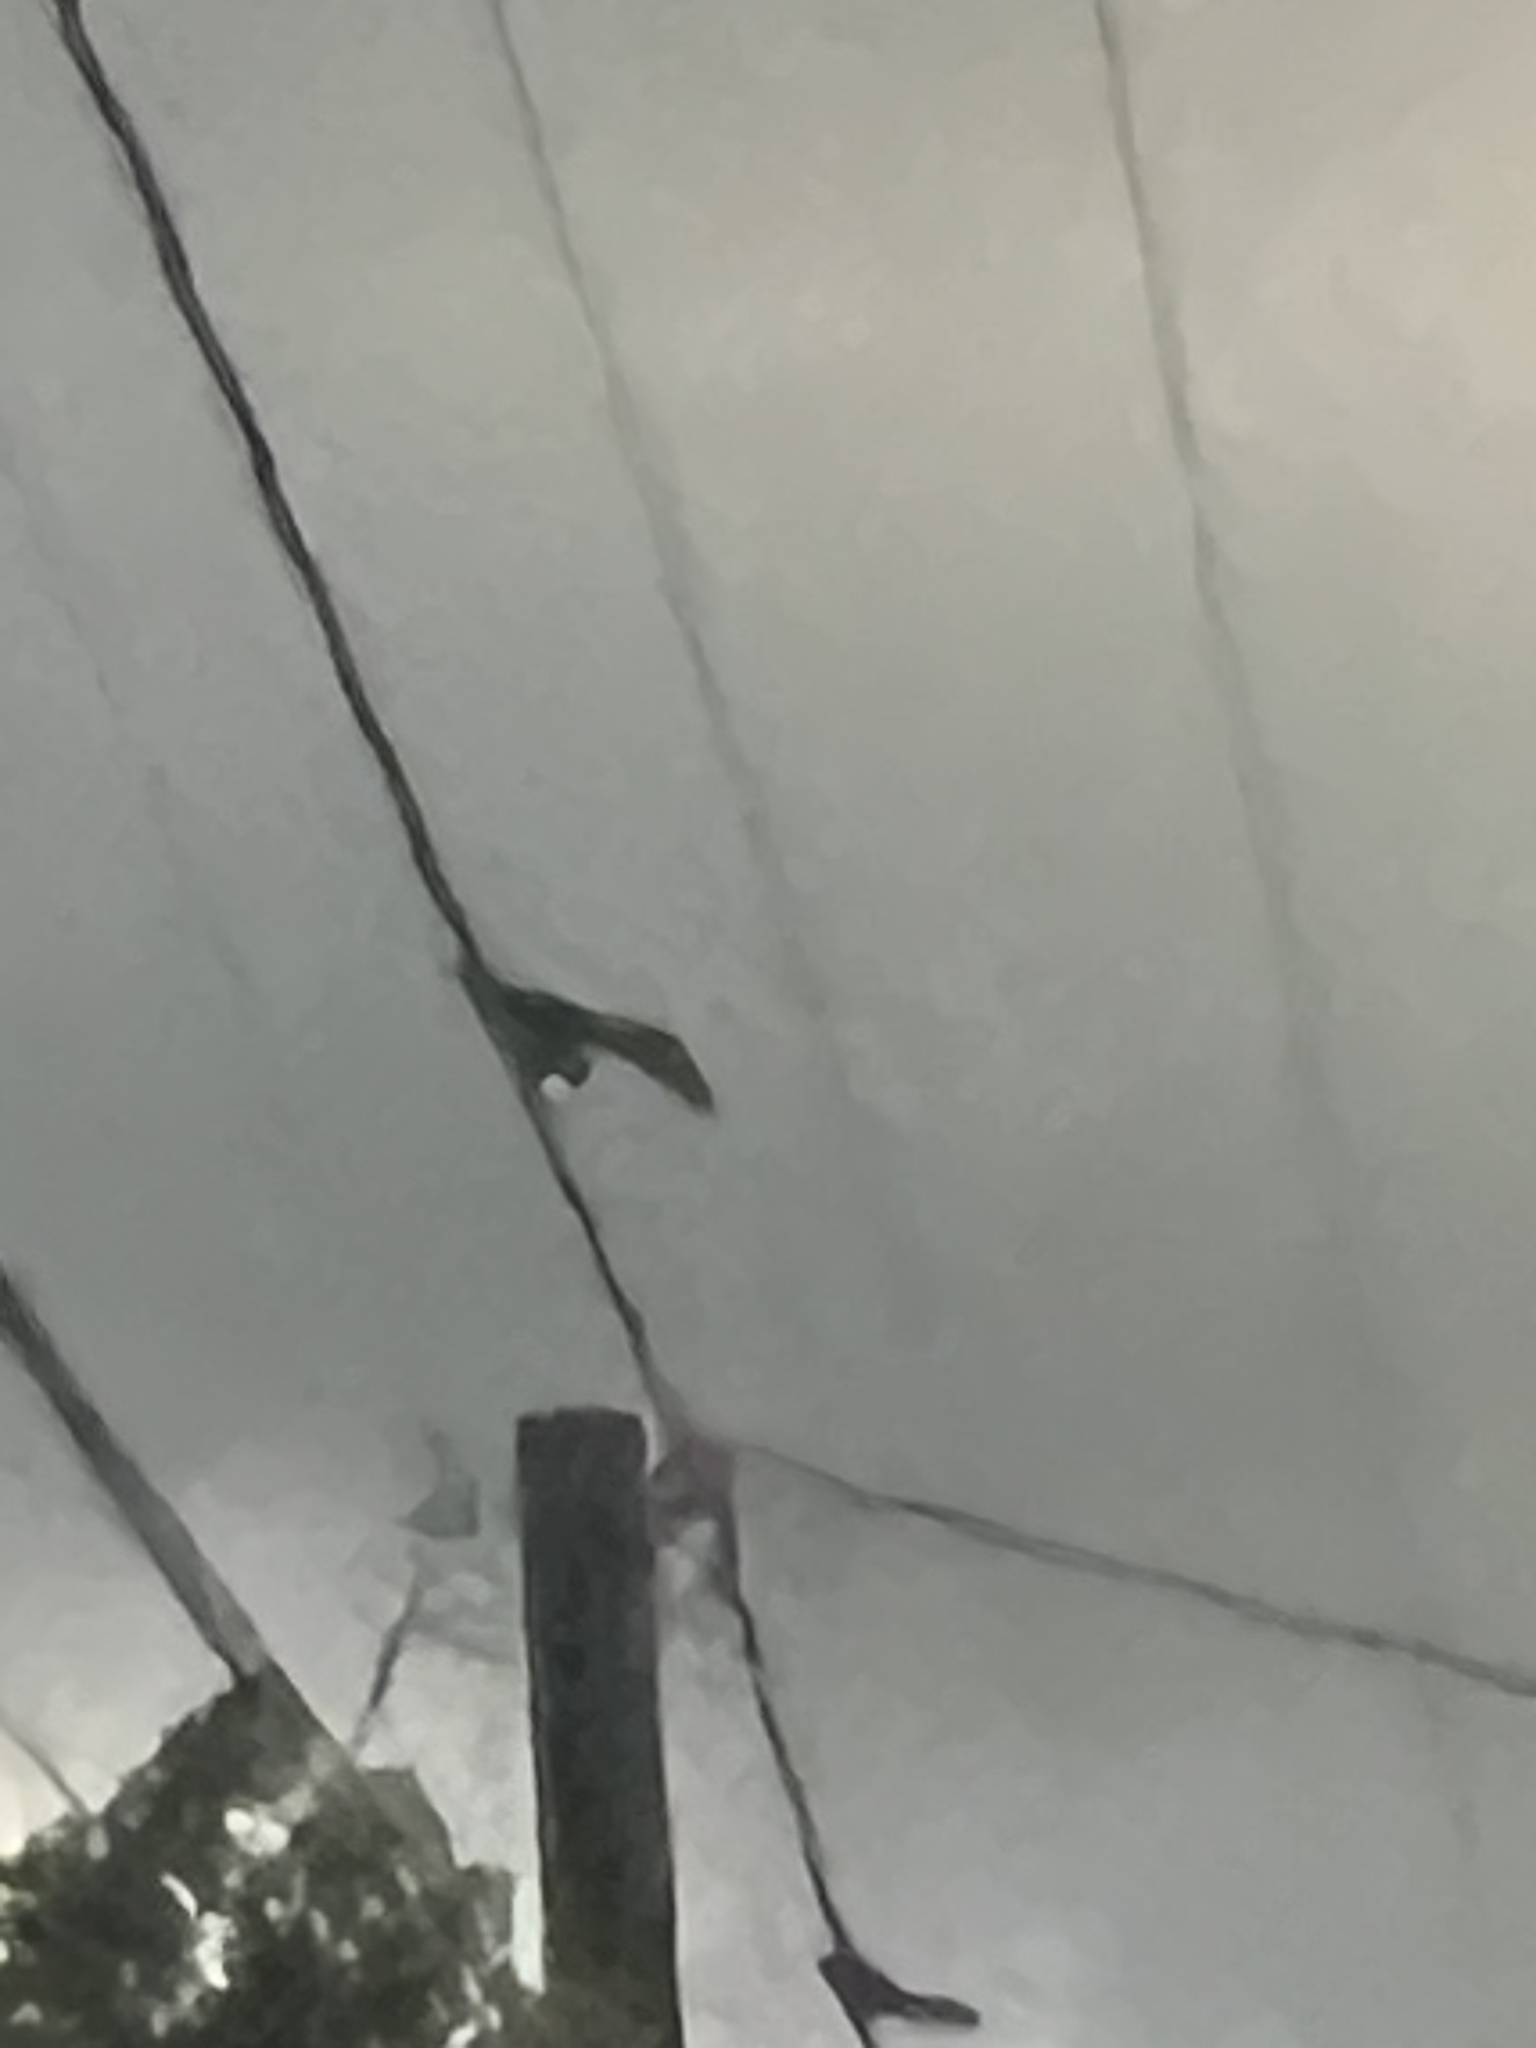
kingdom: Animalia
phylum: Chordata
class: Aves
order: Passeriformes
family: Icteridae
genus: Quiscalus
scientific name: Quiscalus mexicanus
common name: Great-tailed grackle
